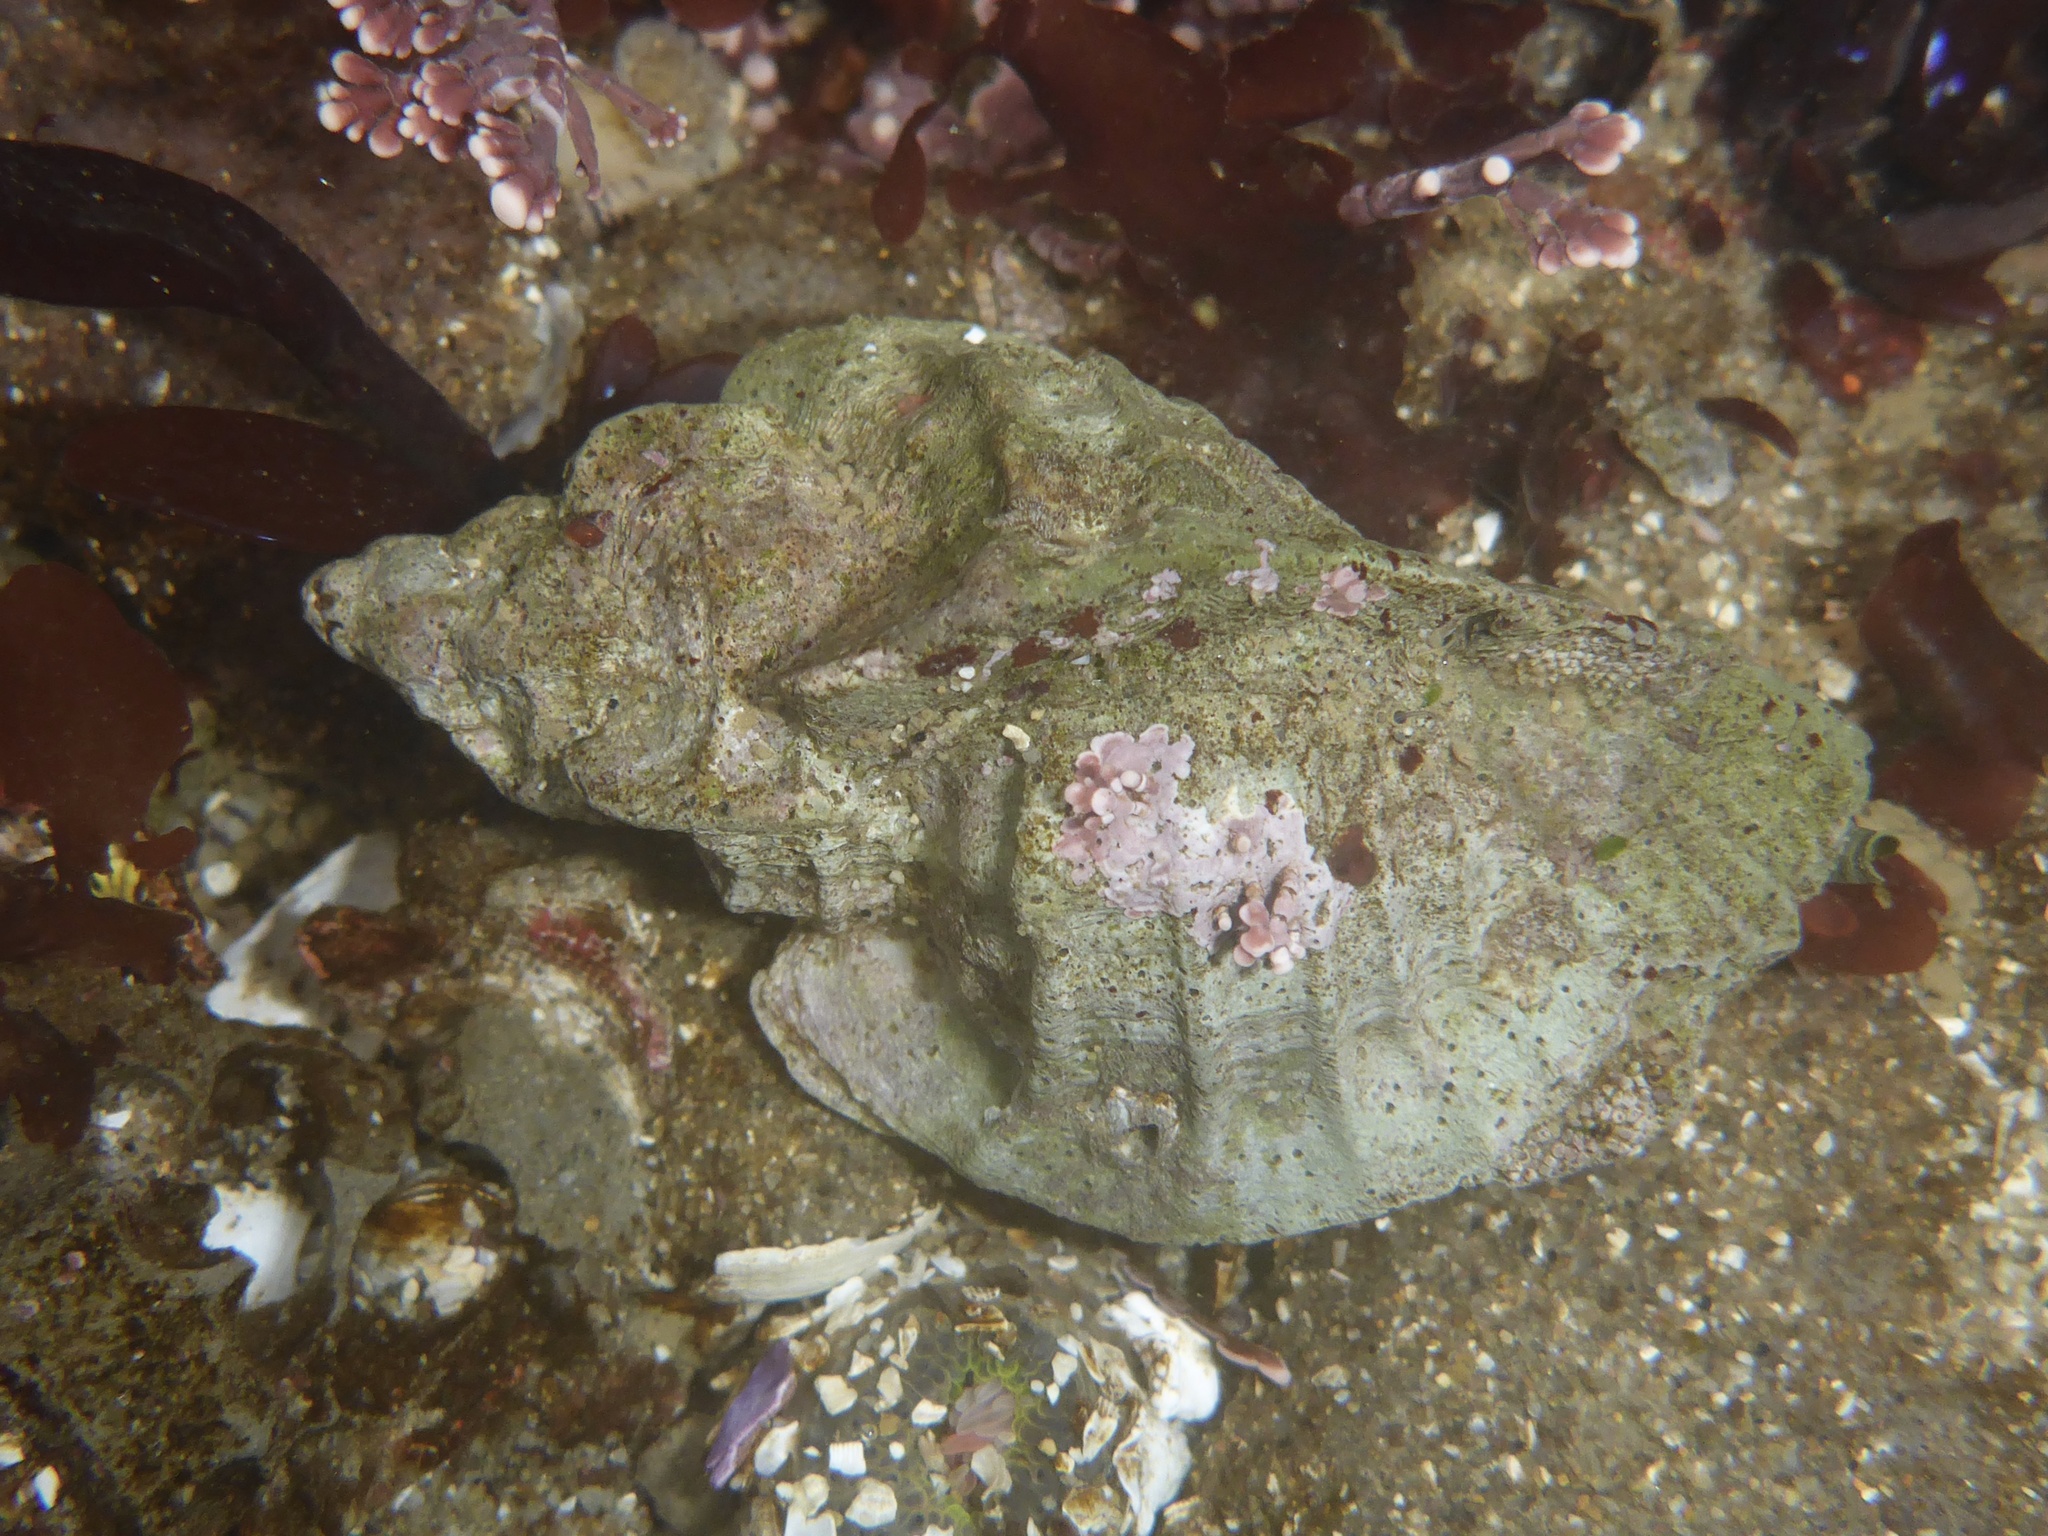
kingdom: Animalia
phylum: Mollusca
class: Gastropoda
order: Neogastropoda
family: Muricidae
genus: Ceratostoma
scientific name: Ceratostoma foliatum
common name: Foliate thorn purpura
